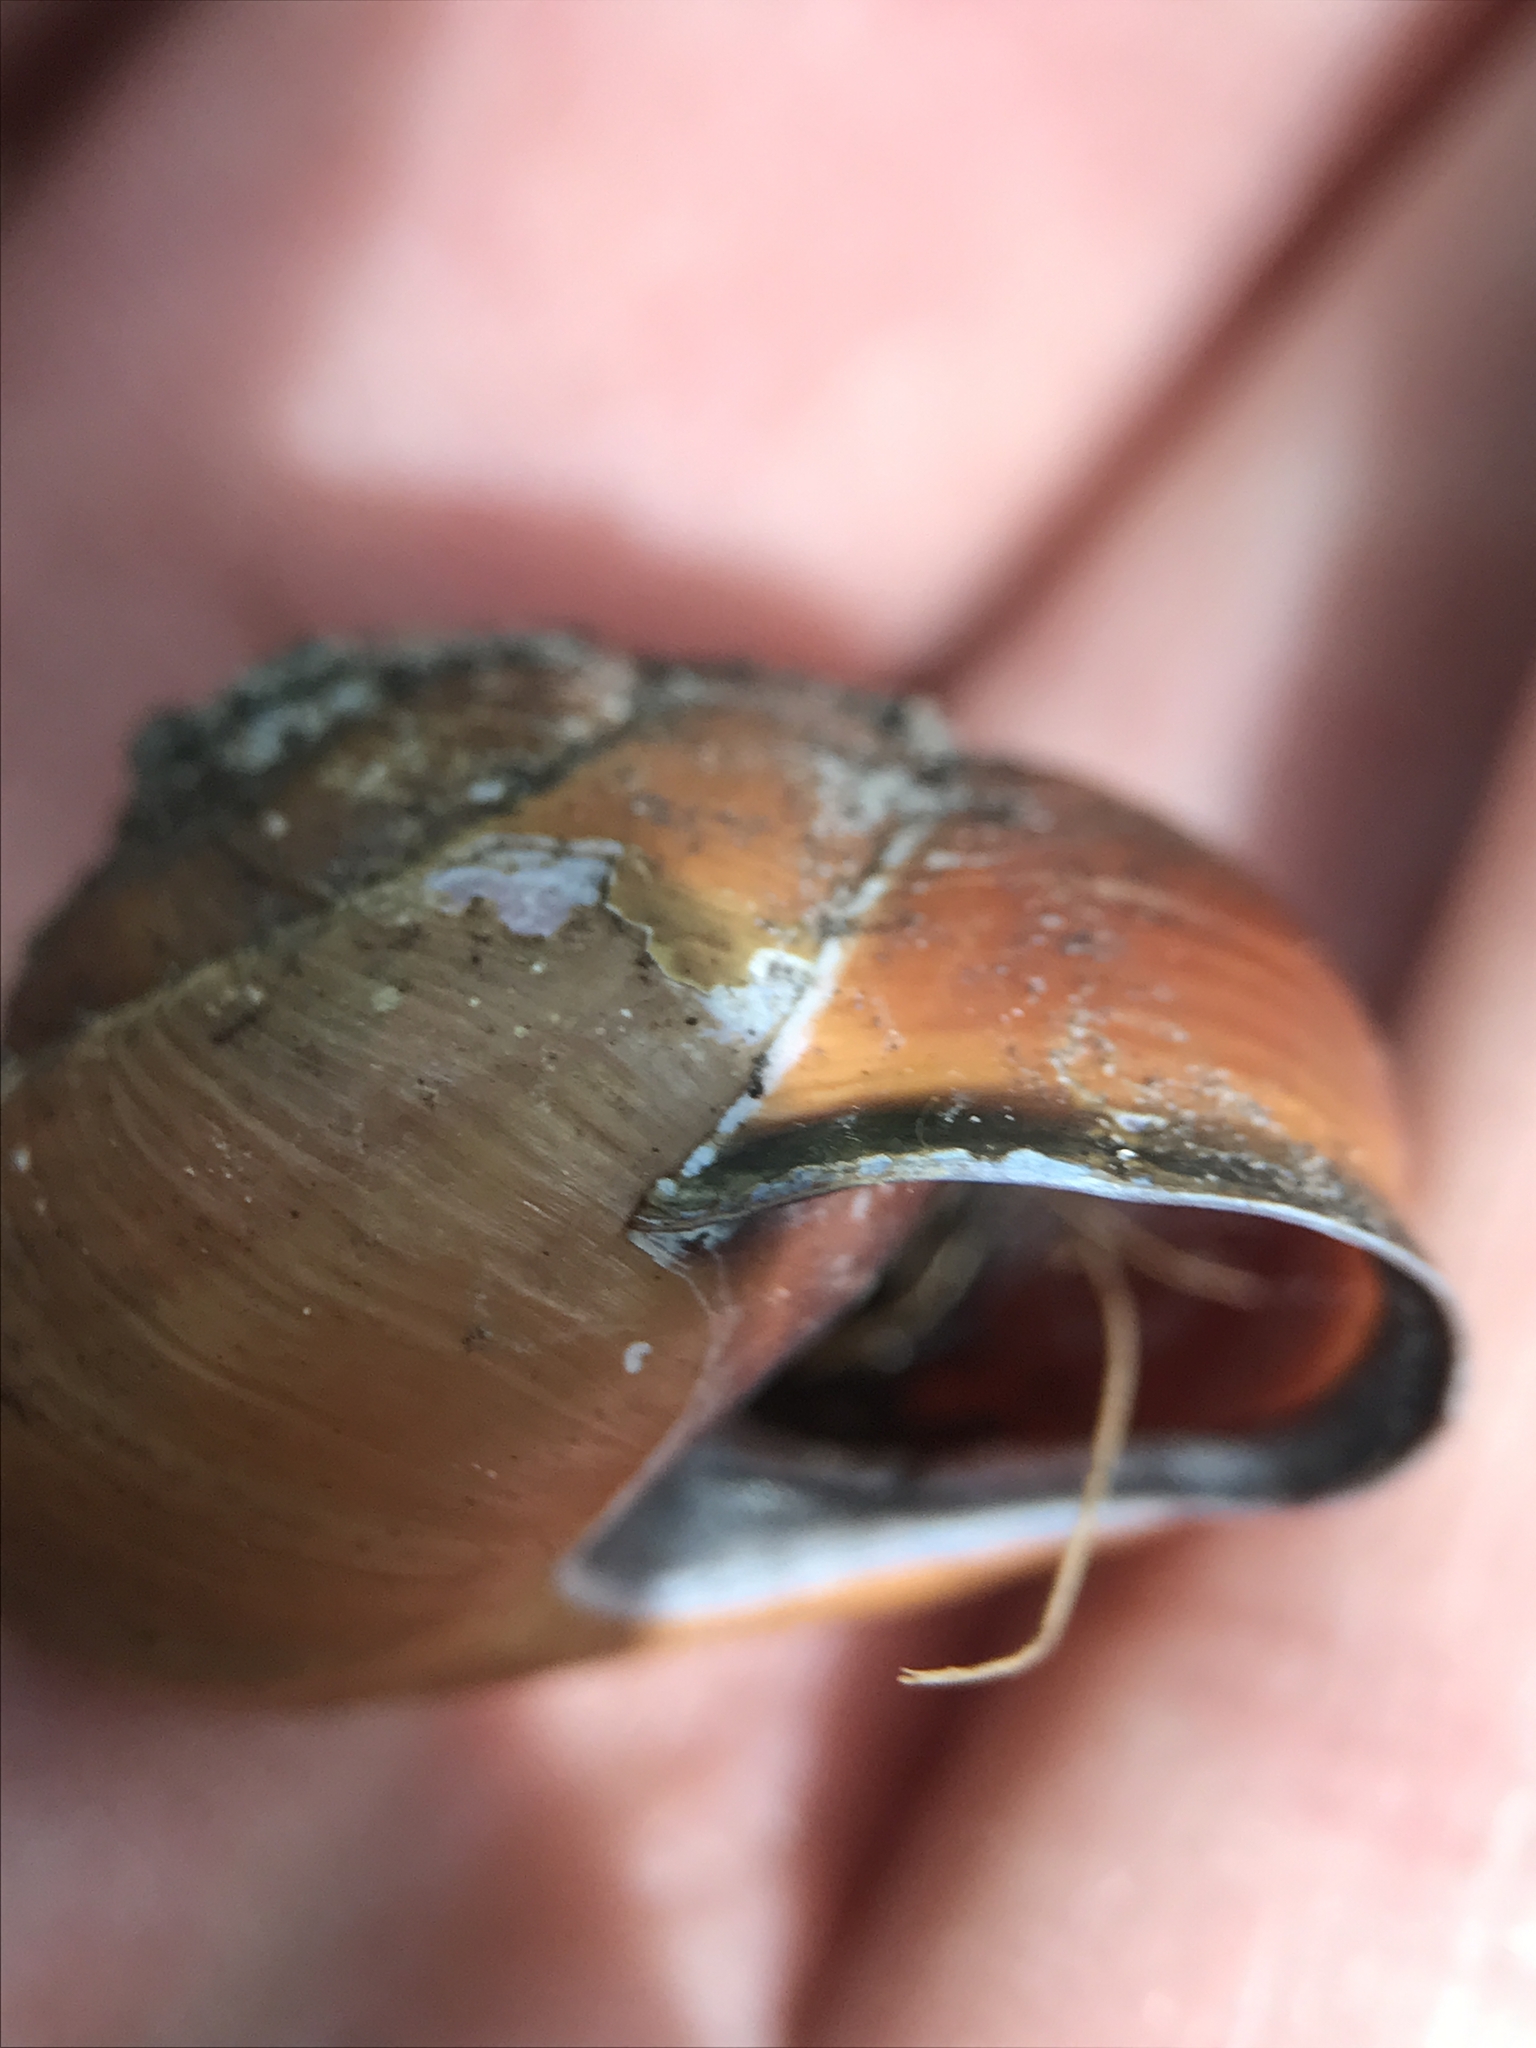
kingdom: Animalia
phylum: Mollusca
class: Gastropoda
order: Stylommatophora
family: Helicidae
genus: Cepaea
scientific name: Cepaea nemoralis
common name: Grovesnail
